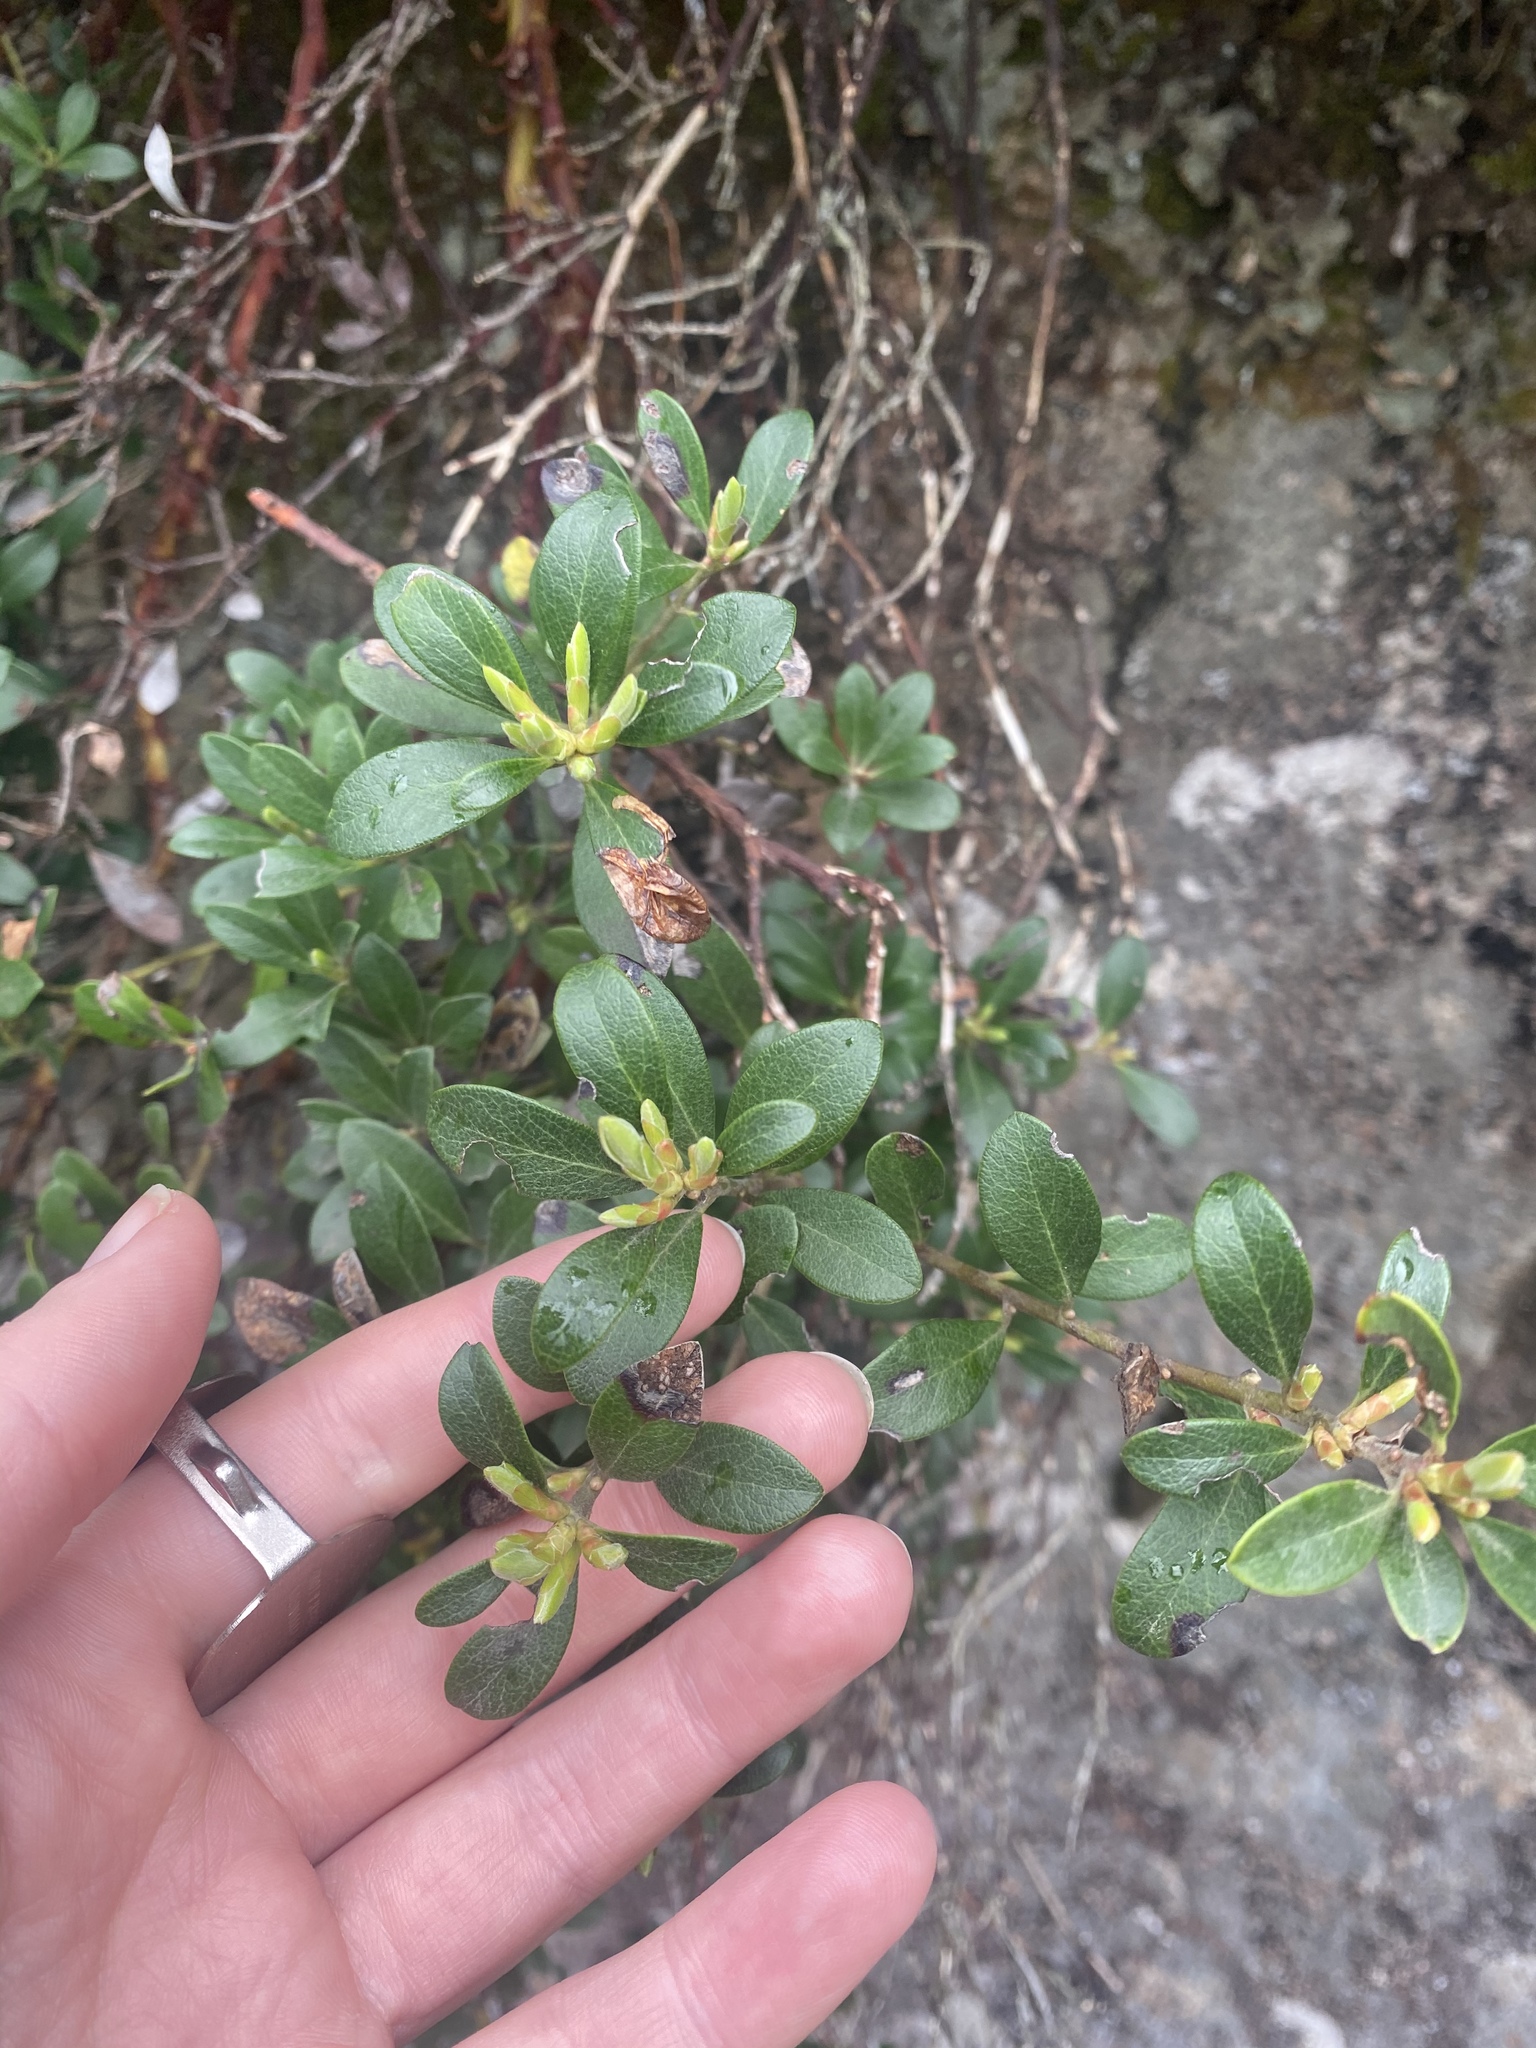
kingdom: Plantae
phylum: Tracheophyta
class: Magnoliopsida
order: Ericales
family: Ericaceae
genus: Arctostaphylos
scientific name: Arctostaphylos uva-ursi
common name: Bearberry
